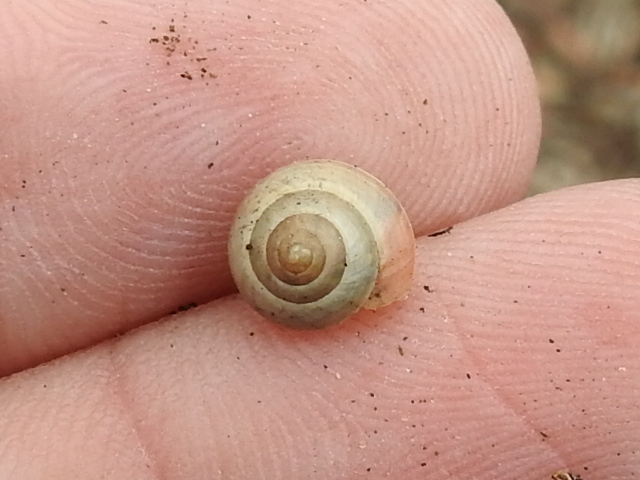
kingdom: Animalia
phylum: Mollusca
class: Gastropoda
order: Cycloneritida
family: Helicinidae
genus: Helicina
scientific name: Helicina orbiculata
